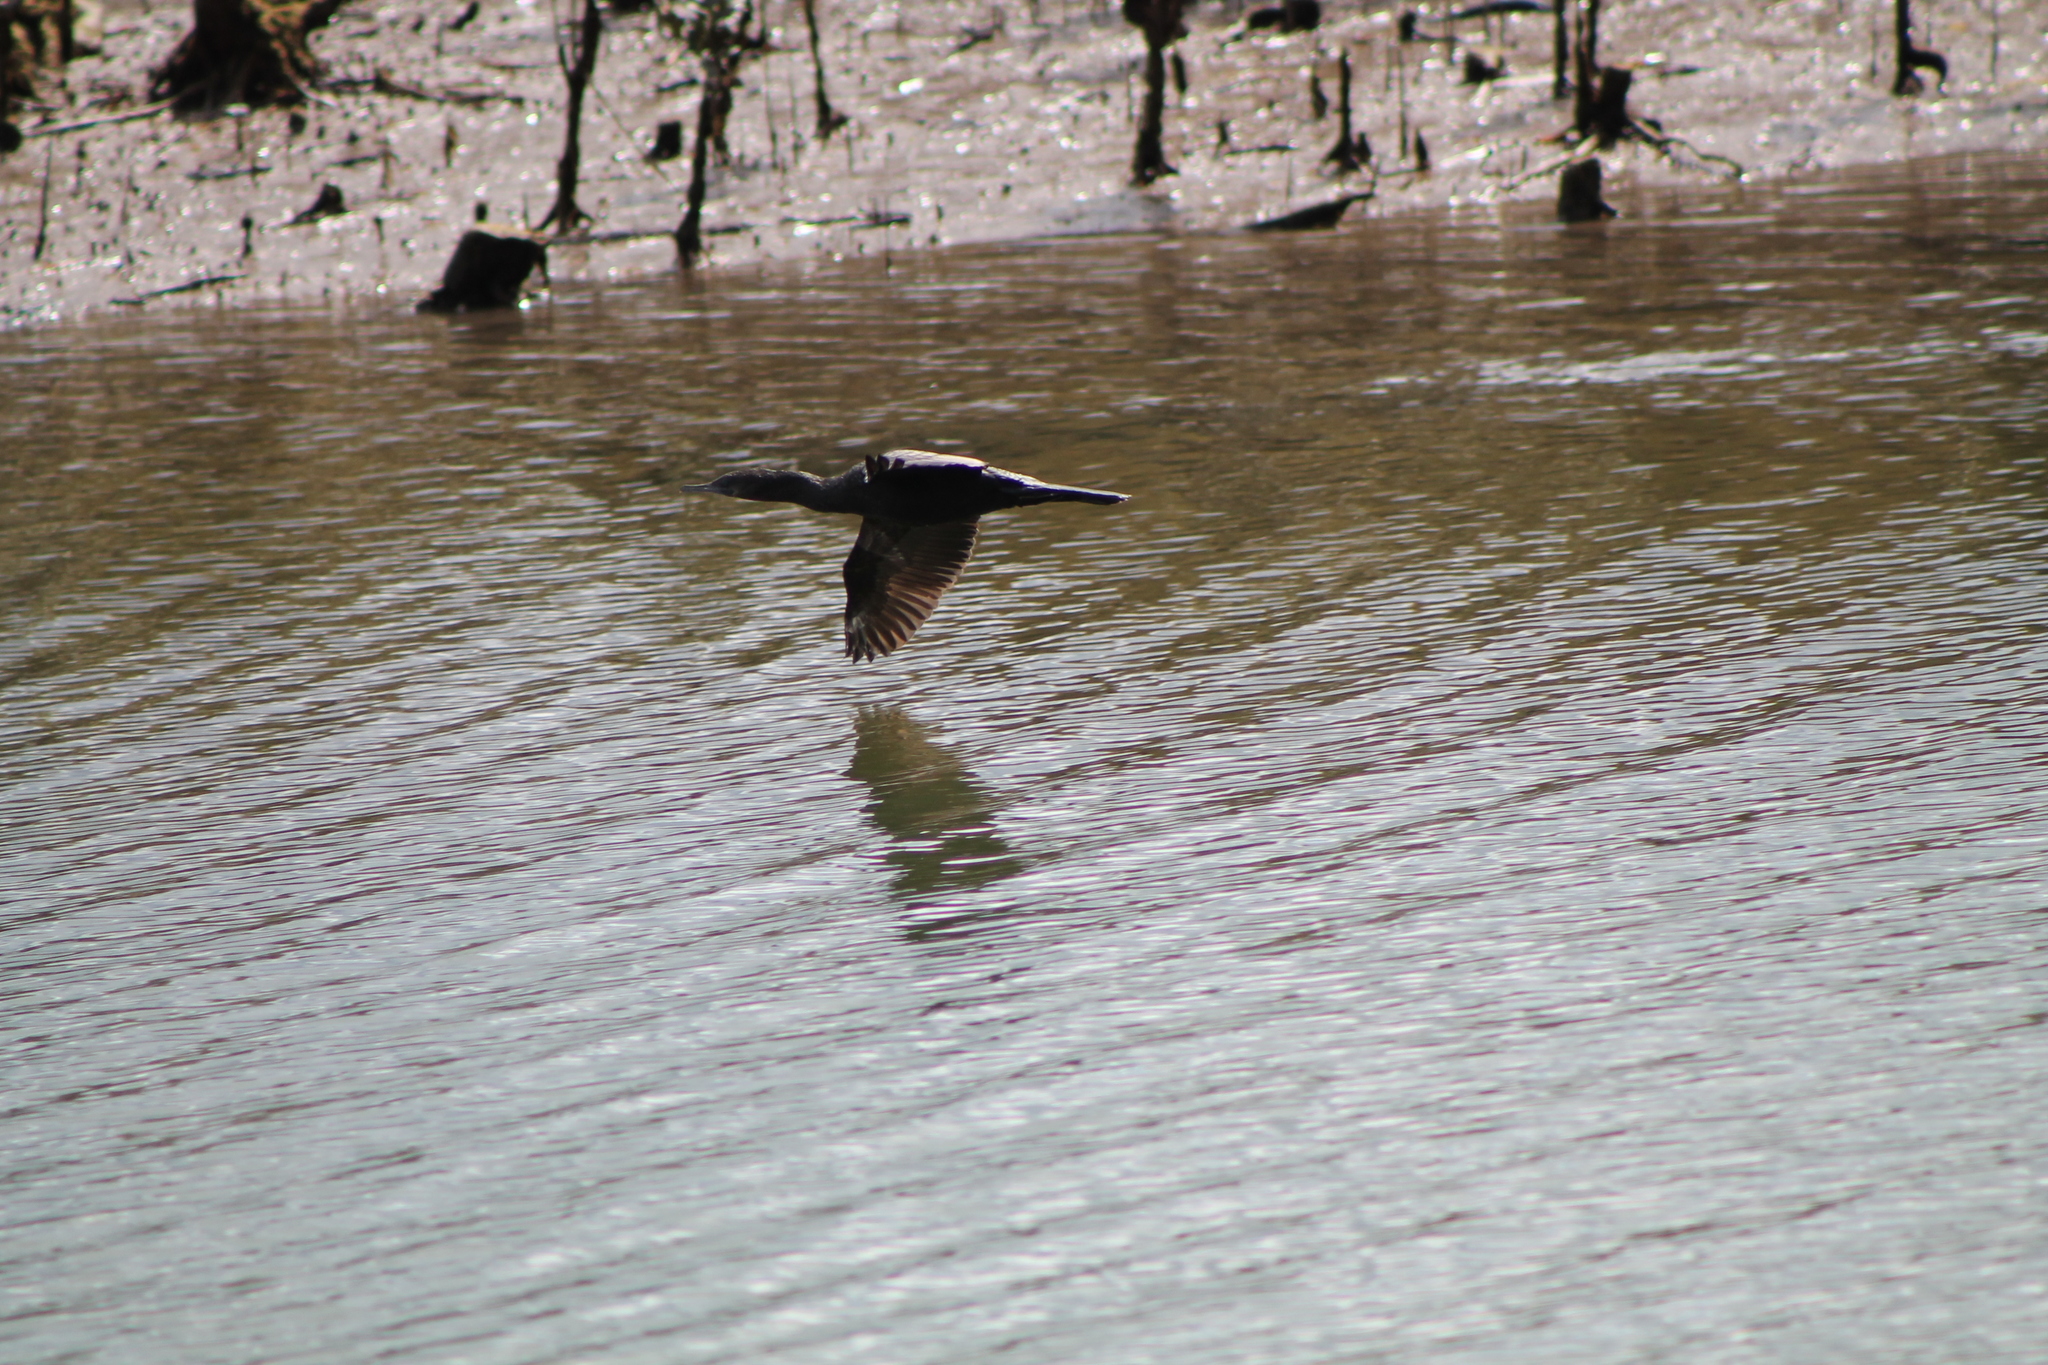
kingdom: Animalia
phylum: Chordata
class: Aves
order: Suliformes
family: Phalacrocoracidae
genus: Phalacrocorax
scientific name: Phalacrocorax carbo
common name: Great cormorant
